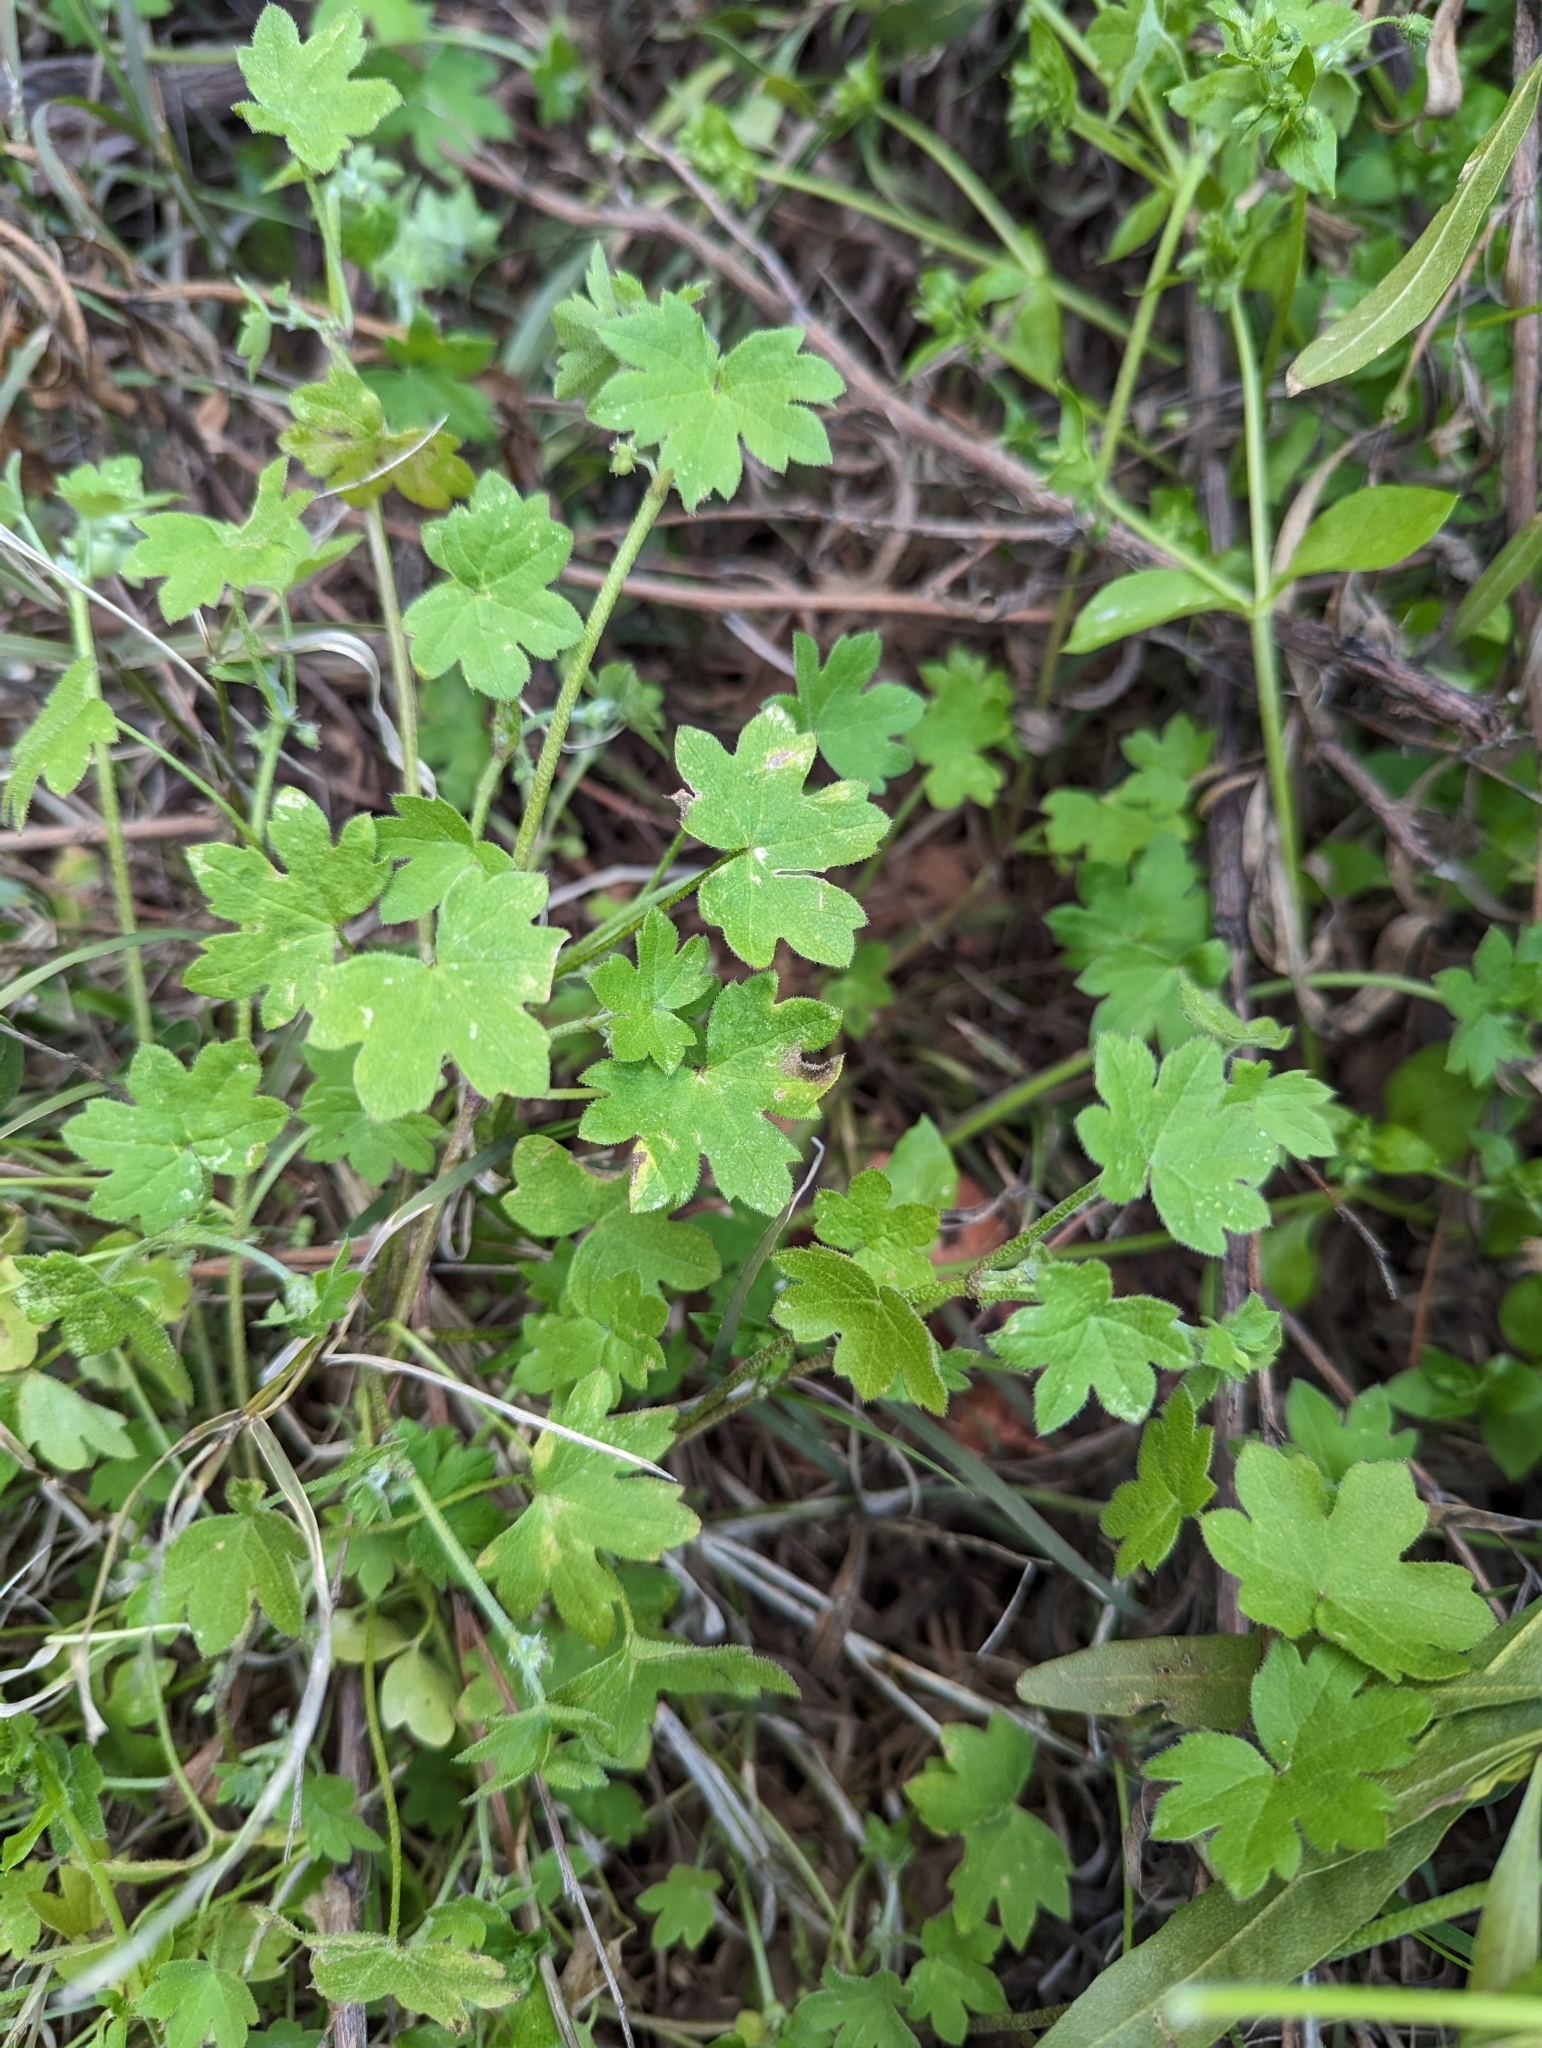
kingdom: Plantae
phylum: Tracheophyta
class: Magnoliopsida
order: Apiales
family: Apiaceae
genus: Bowlesia
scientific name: Bowlesia incana
